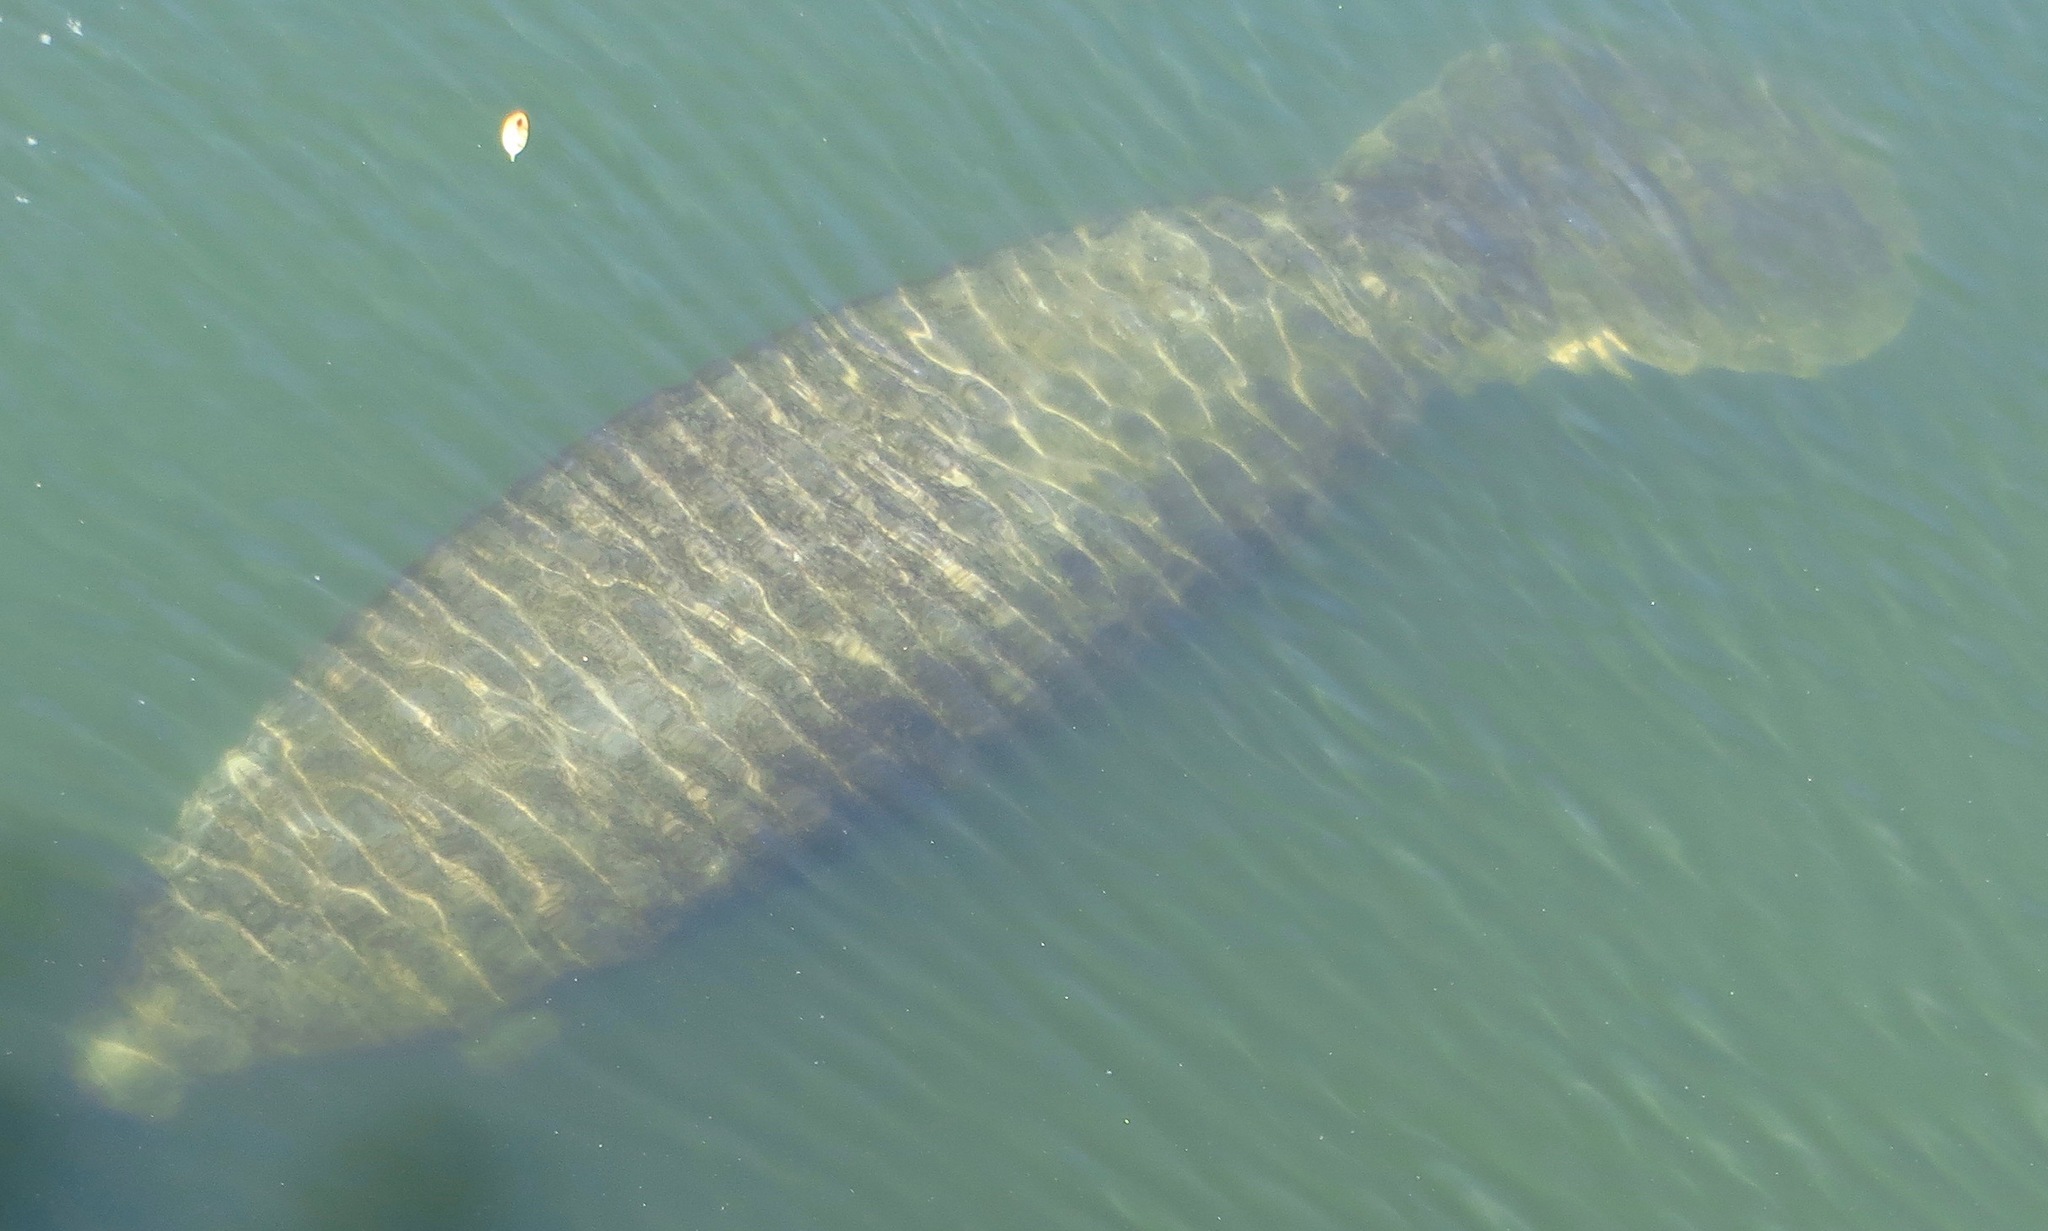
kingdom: Animalia
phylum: Chordata
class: Mammalia
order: Sirenia
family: Trichechidae
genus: Trichechus
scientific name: Trichechus manatus
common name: West indian manatee
